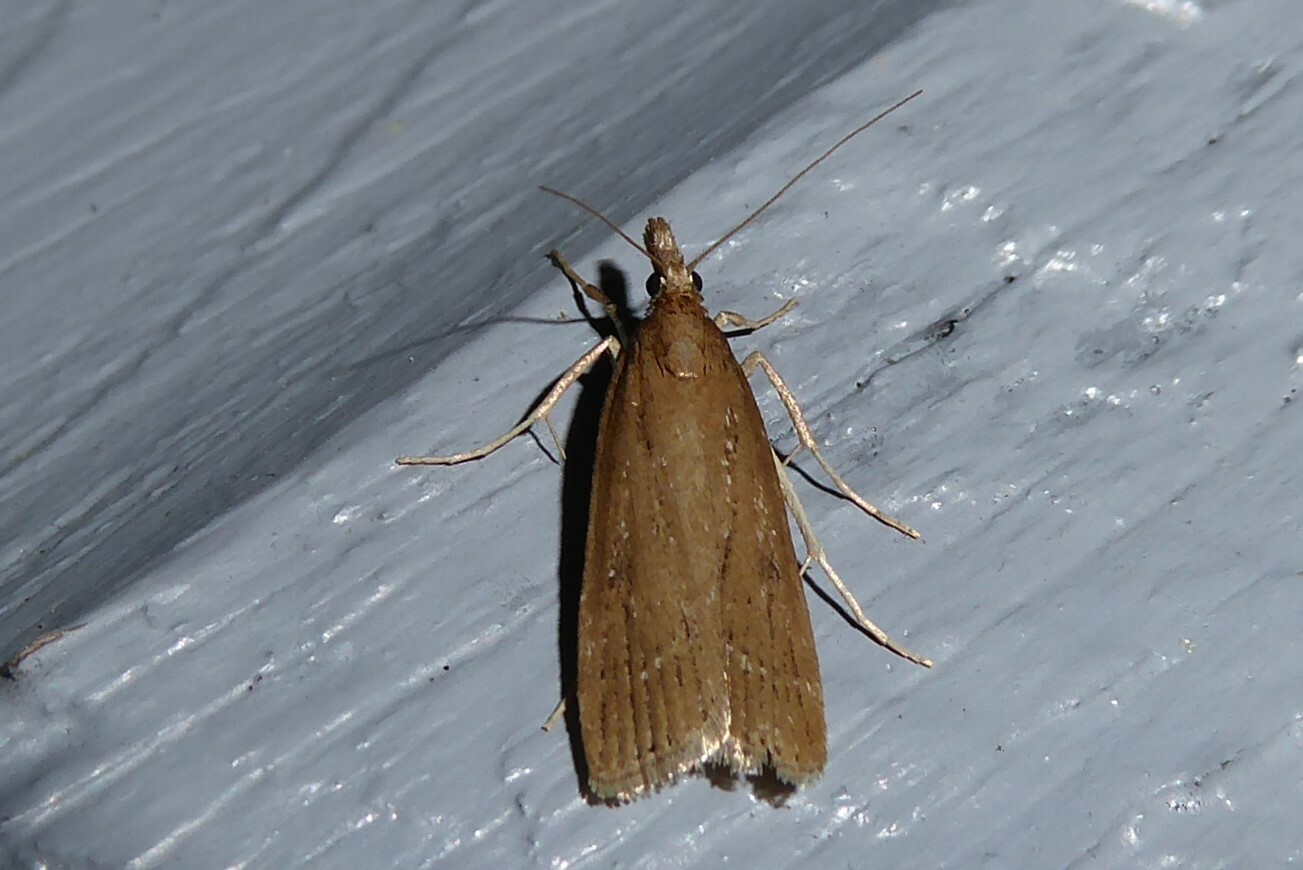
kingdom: Animalia
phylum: Arthropoda
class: Insecta
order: Lepidoptera
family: Crambidae
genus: Eudonia
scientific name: Eudonia octophora
